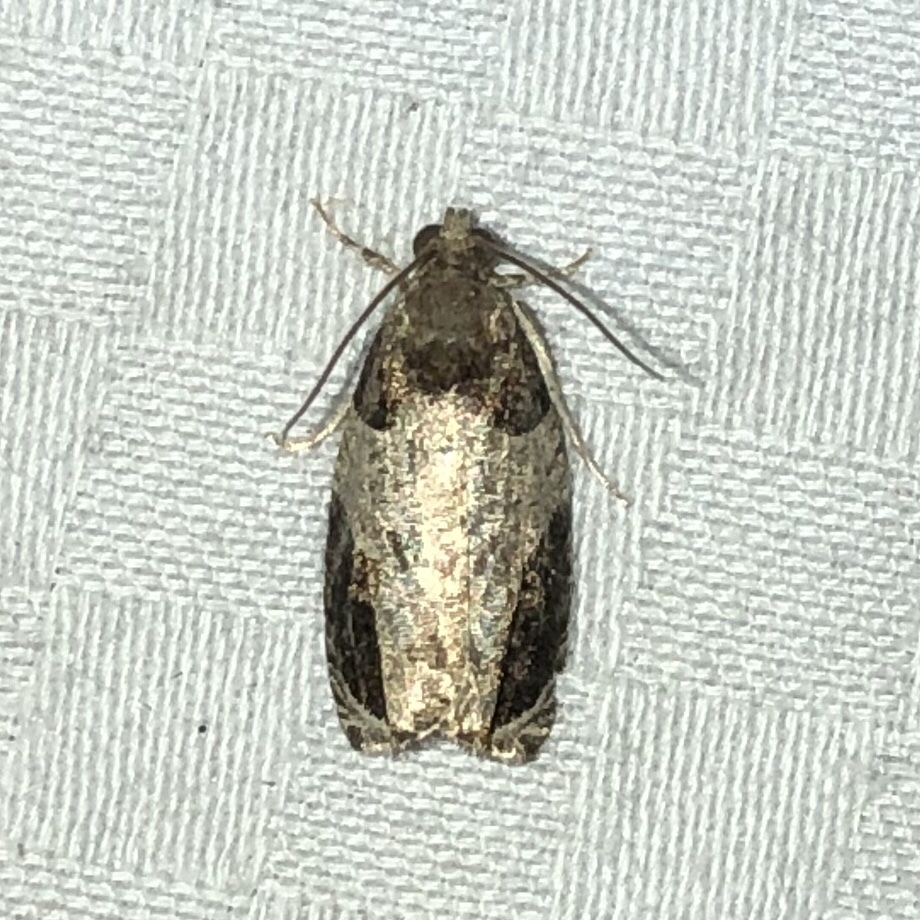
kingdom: Animalia
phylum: Arthropoda
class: Insecta
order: Lepidoptera
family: Tortricidae
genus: Olethreutes
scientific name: Olethreutes ferriferana
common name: Hydrangea leaftier moth
